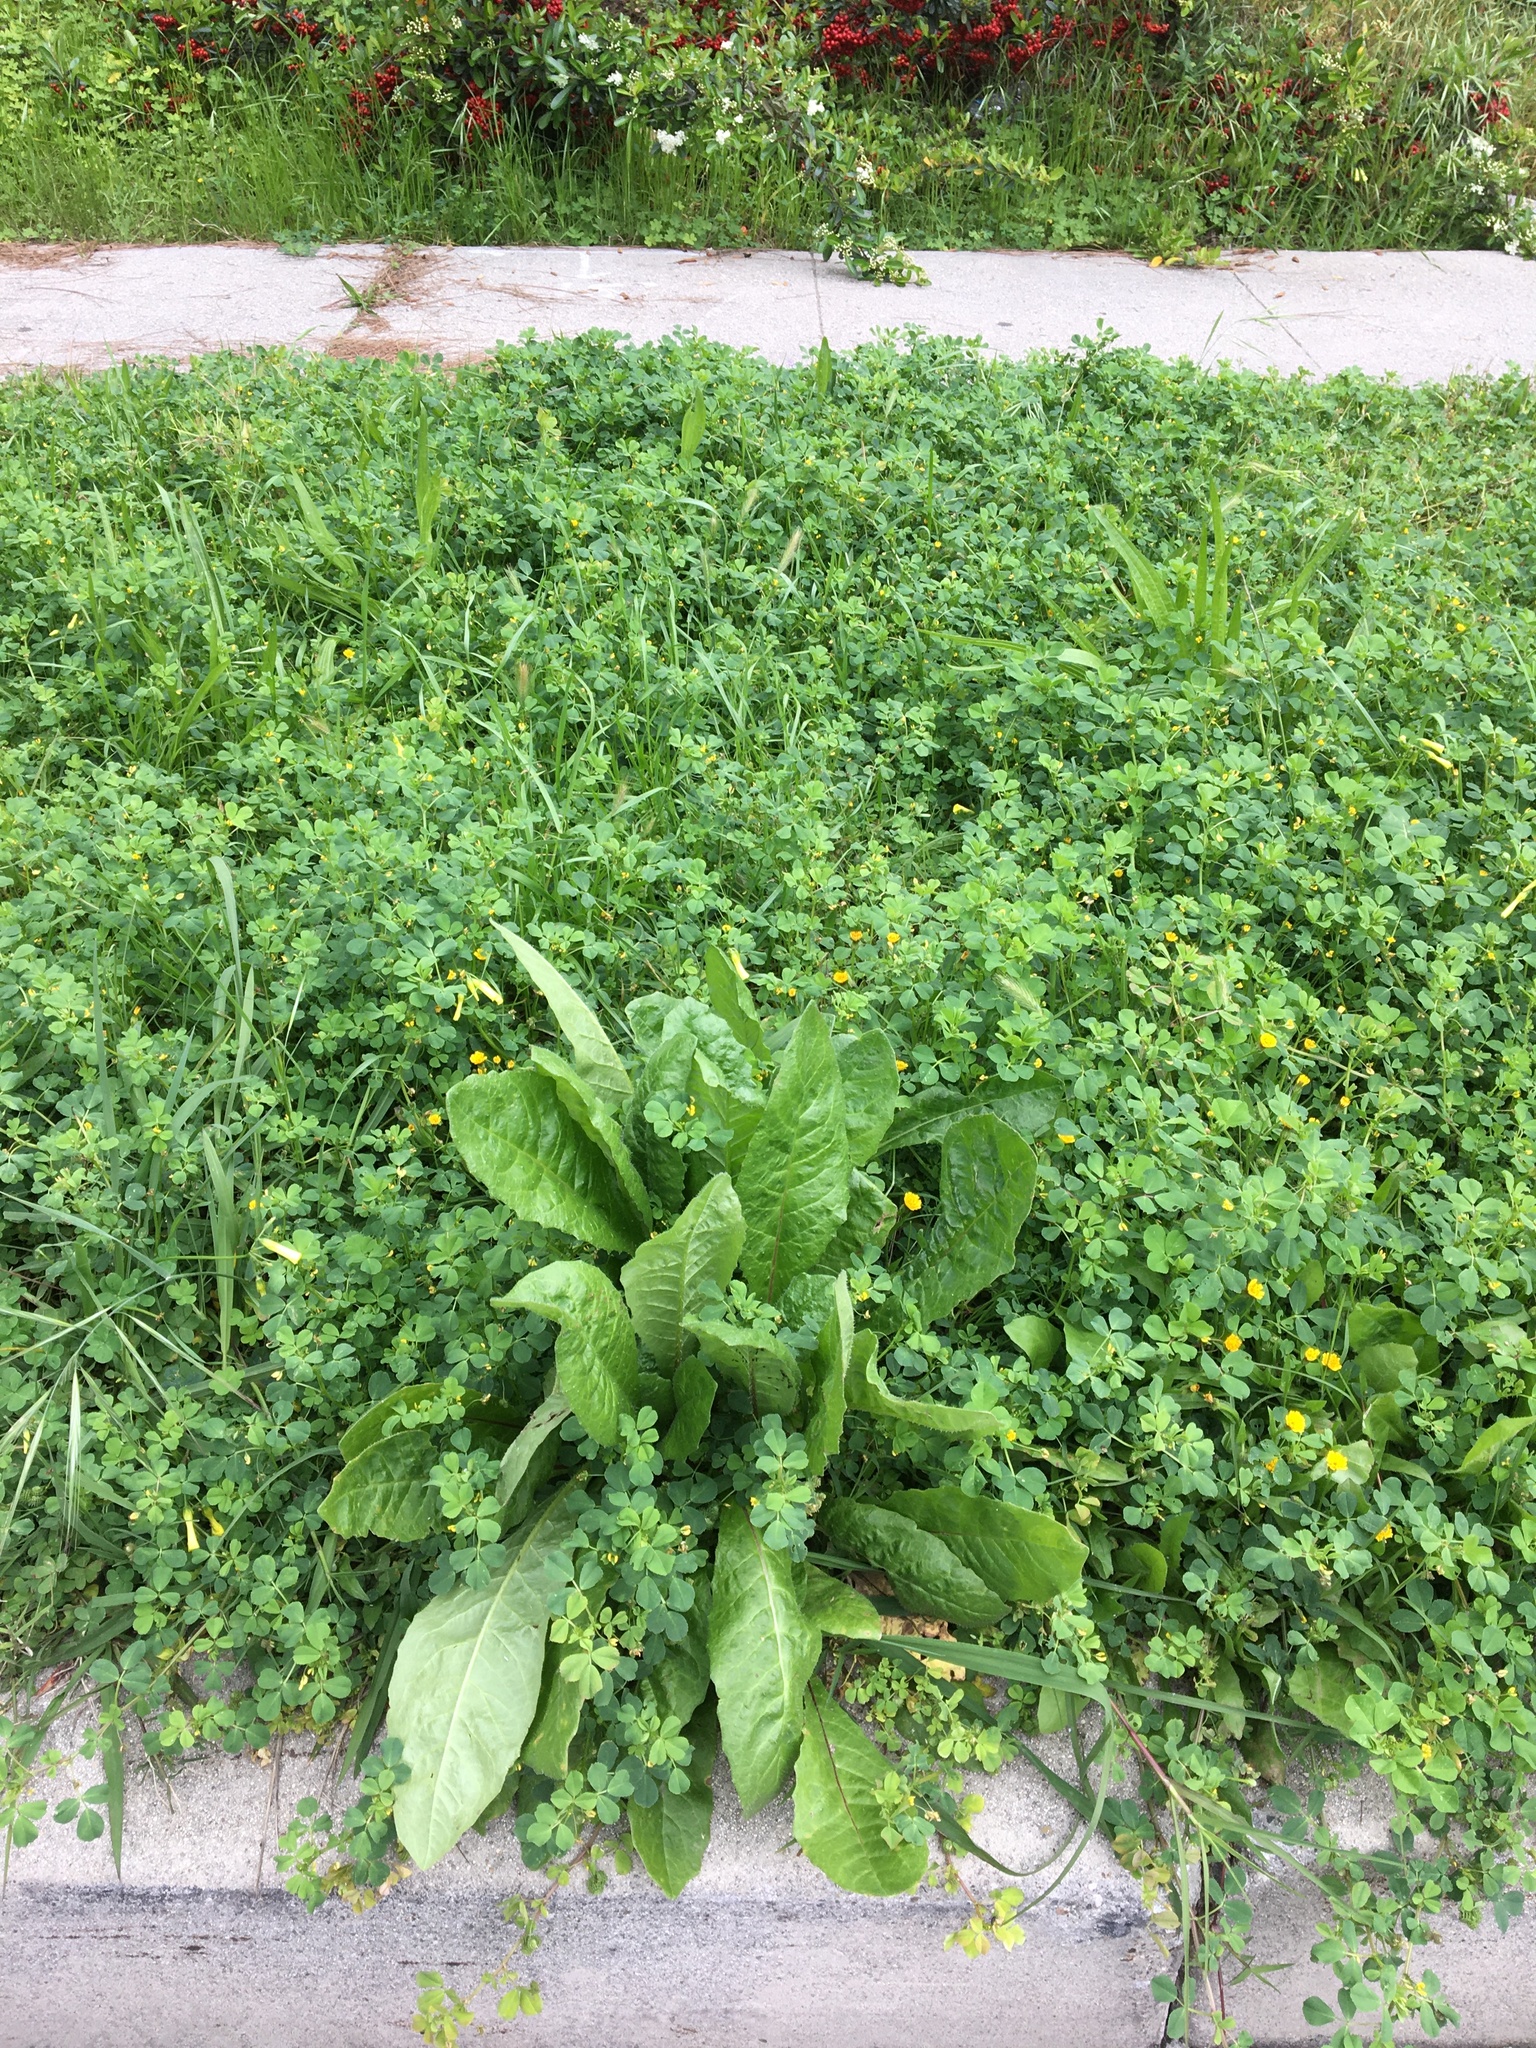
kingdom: Plantae
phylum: Tracheophyta
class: Magnoliopsida
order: Asterales
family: Asteraceae
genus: Helminthotheca
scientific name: Helminthotheca echioides
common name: Ox-tongue
